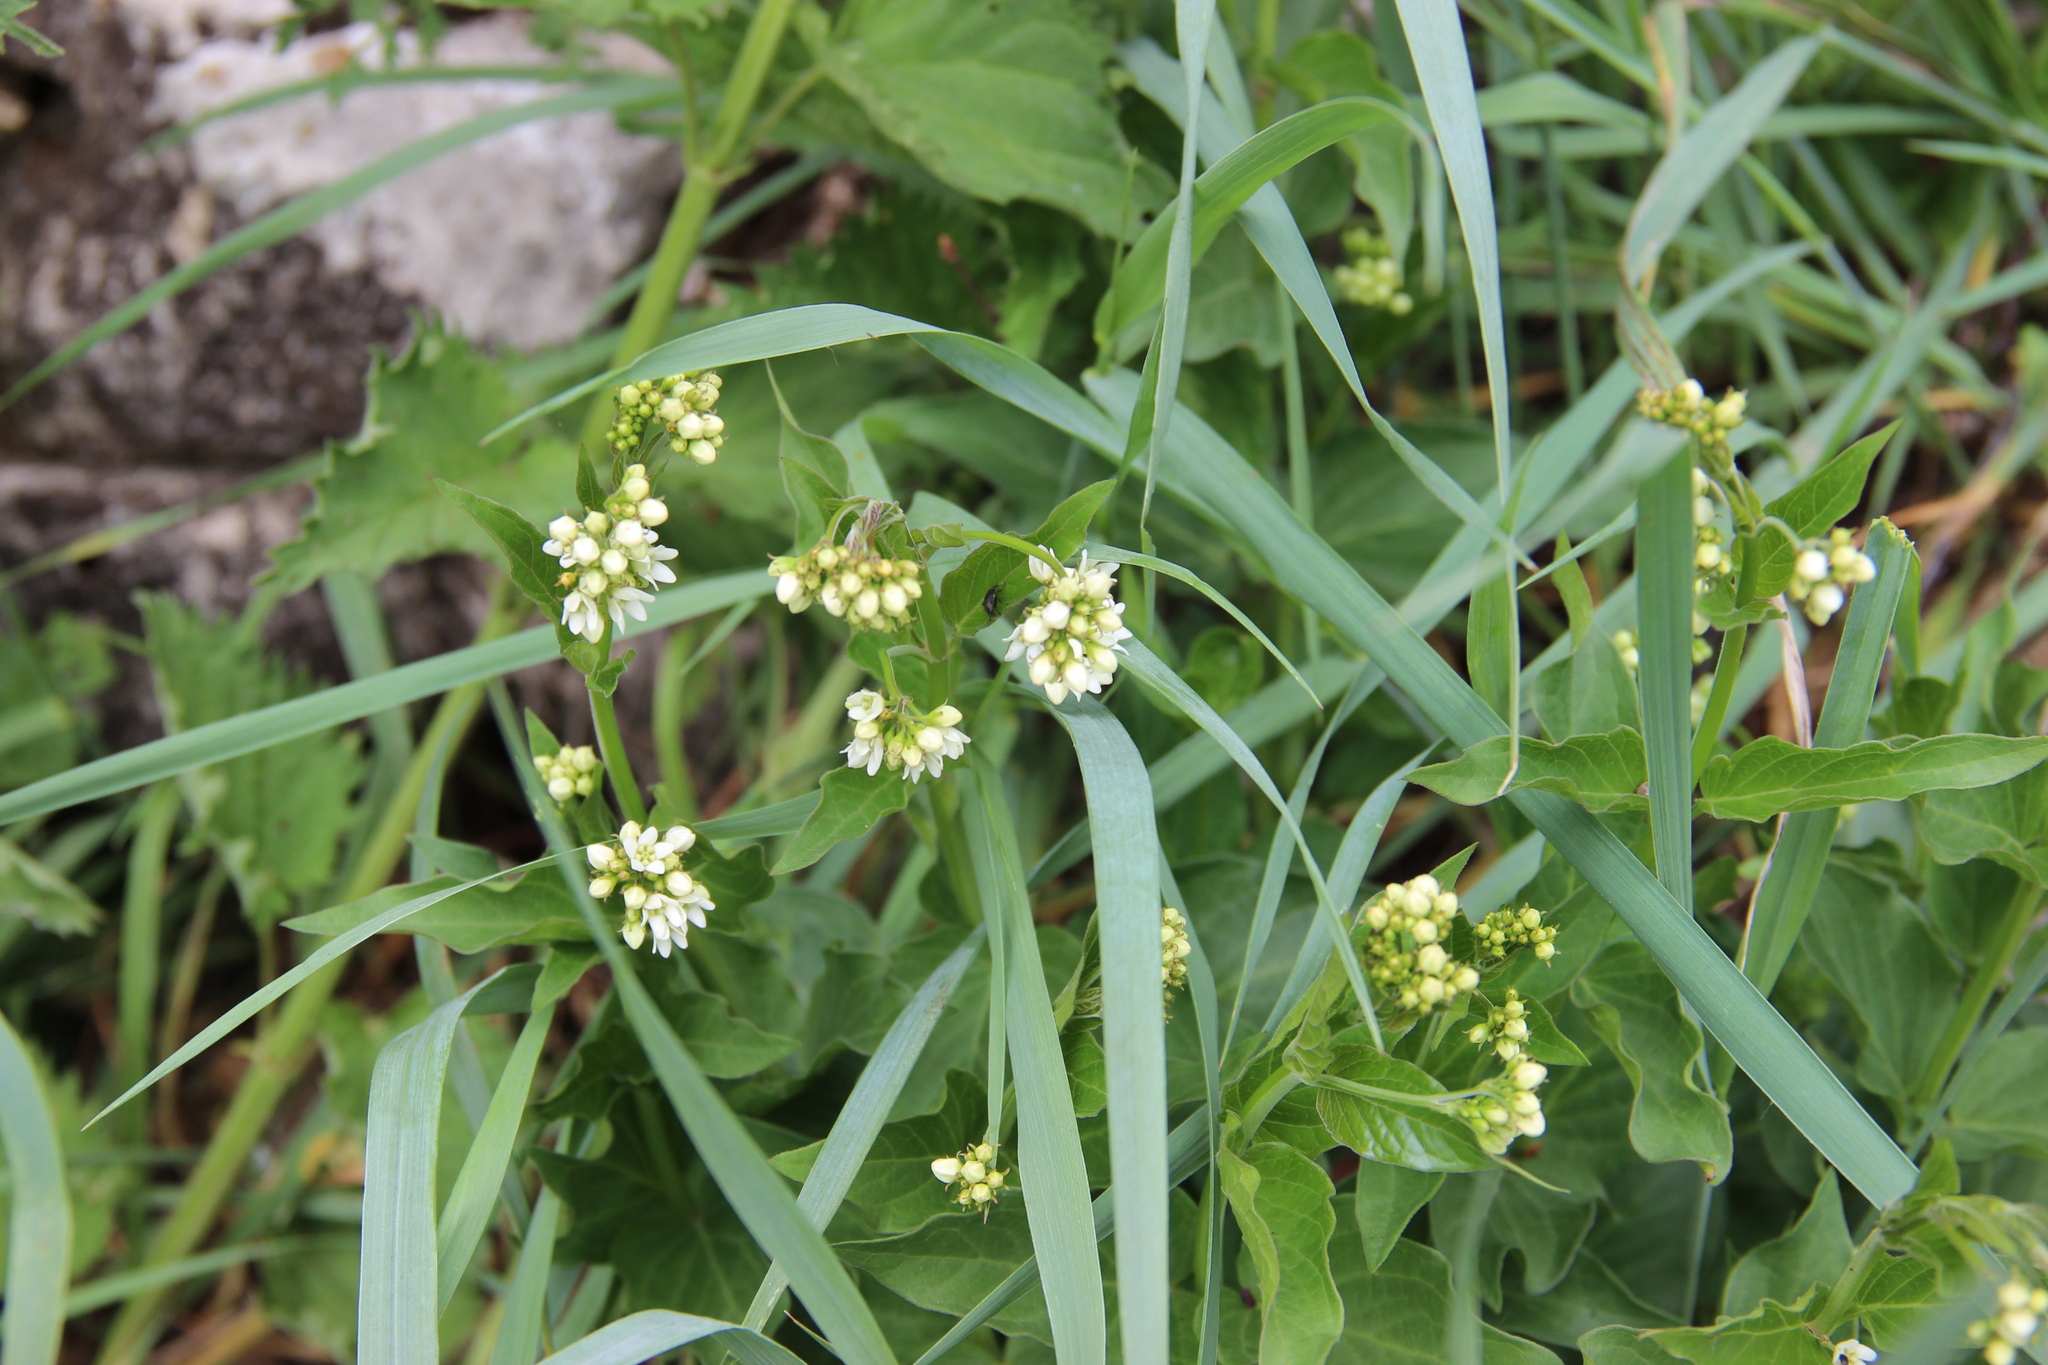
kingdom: Plantae
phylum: Tracheophyta
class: Magnoliopsida
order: Gentianales
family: Apocynaceae
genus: Vincetoxicum
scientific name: Vincetoxicum hirundinaria
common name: White swallowwort
